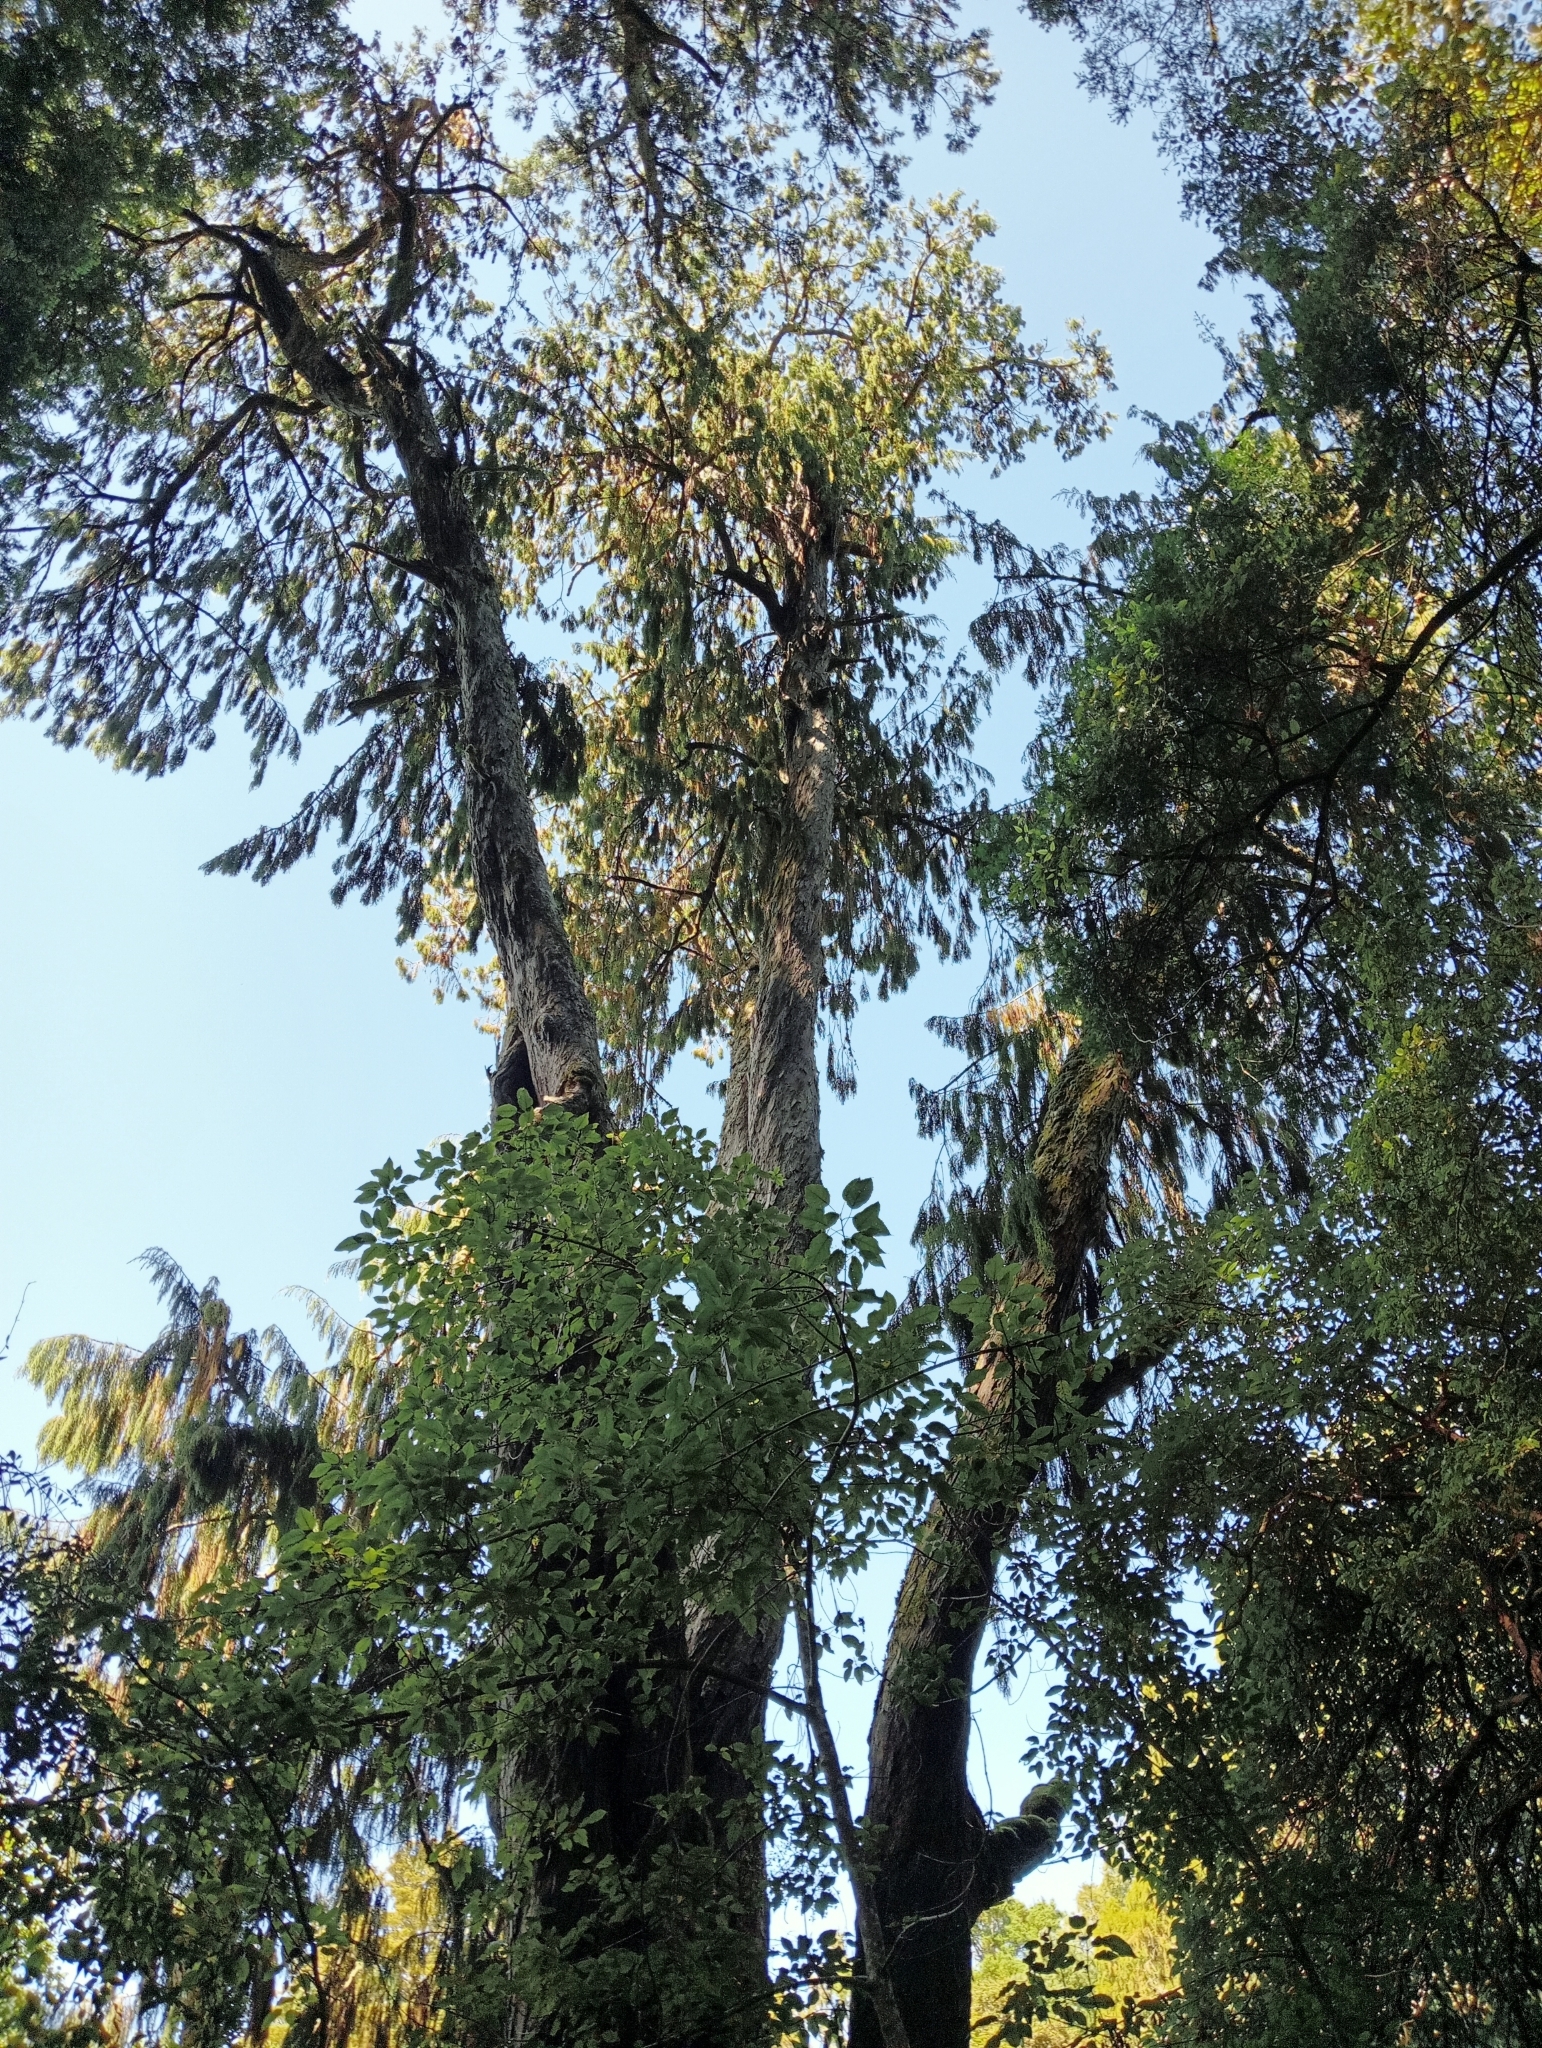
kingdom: Plantae
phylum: Tracheophyta
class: Pinopsida
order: Pinales
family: Podocarpaceae
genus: Dacrydium
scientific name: Dacrydium cupressinum
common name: Red pine
